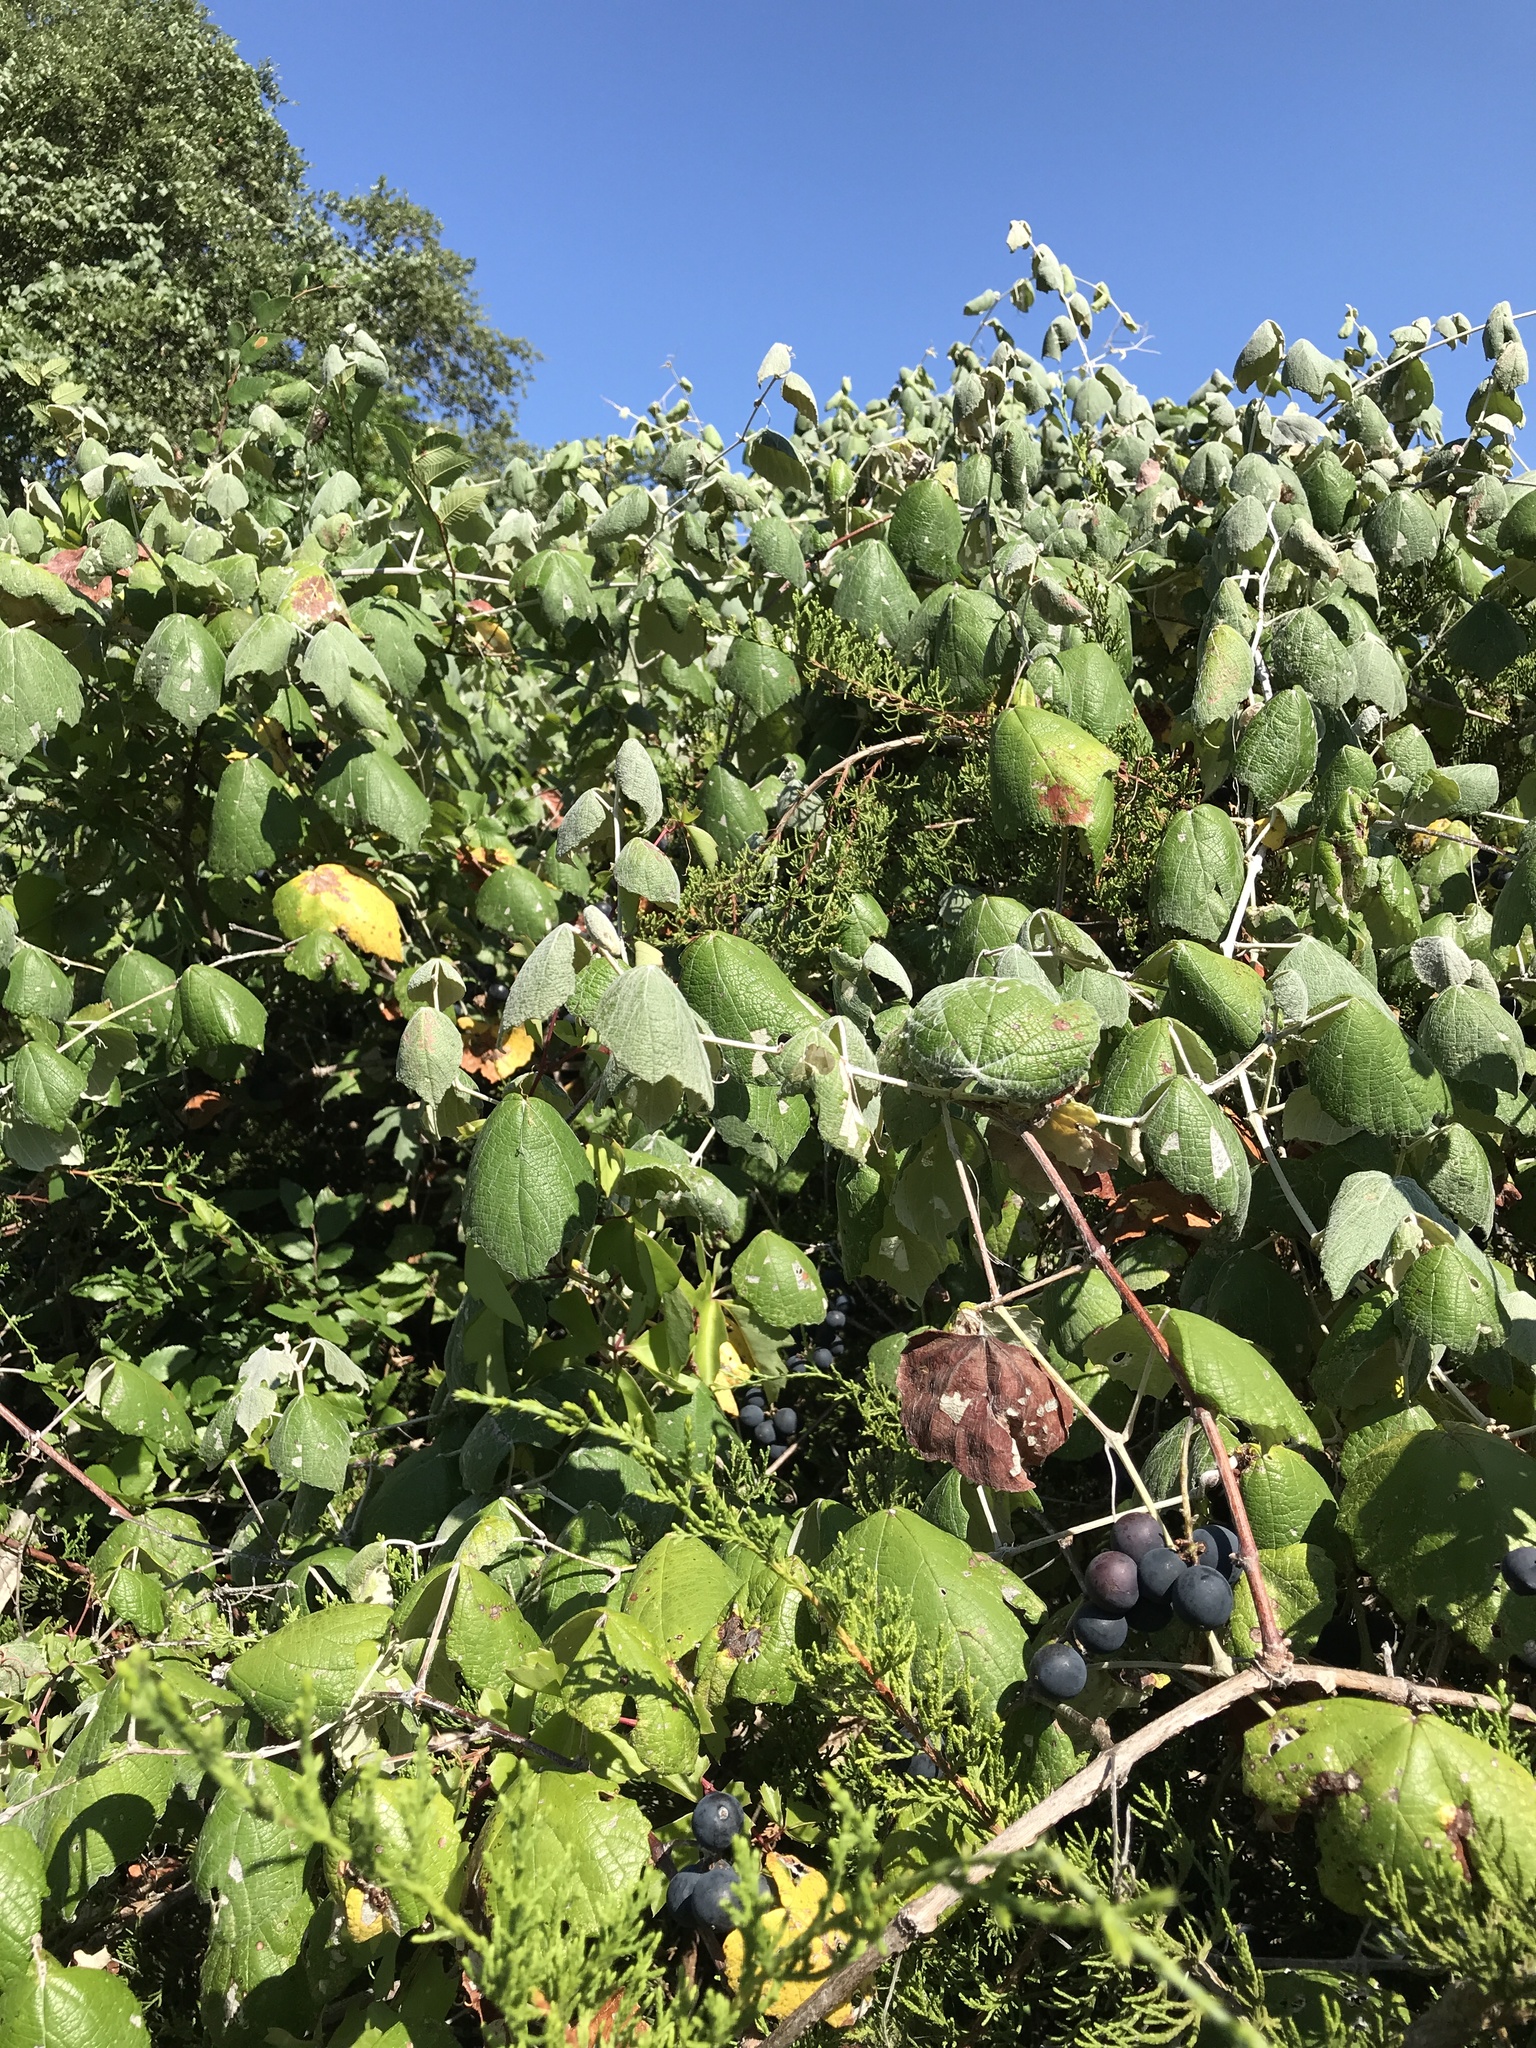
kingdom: Plantae
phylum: Tracheophyta
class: Magnoliopsida
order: Vitales
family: Vitaceae
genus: Vitis
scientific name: Vitis mustangensis
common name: Mustang grape
